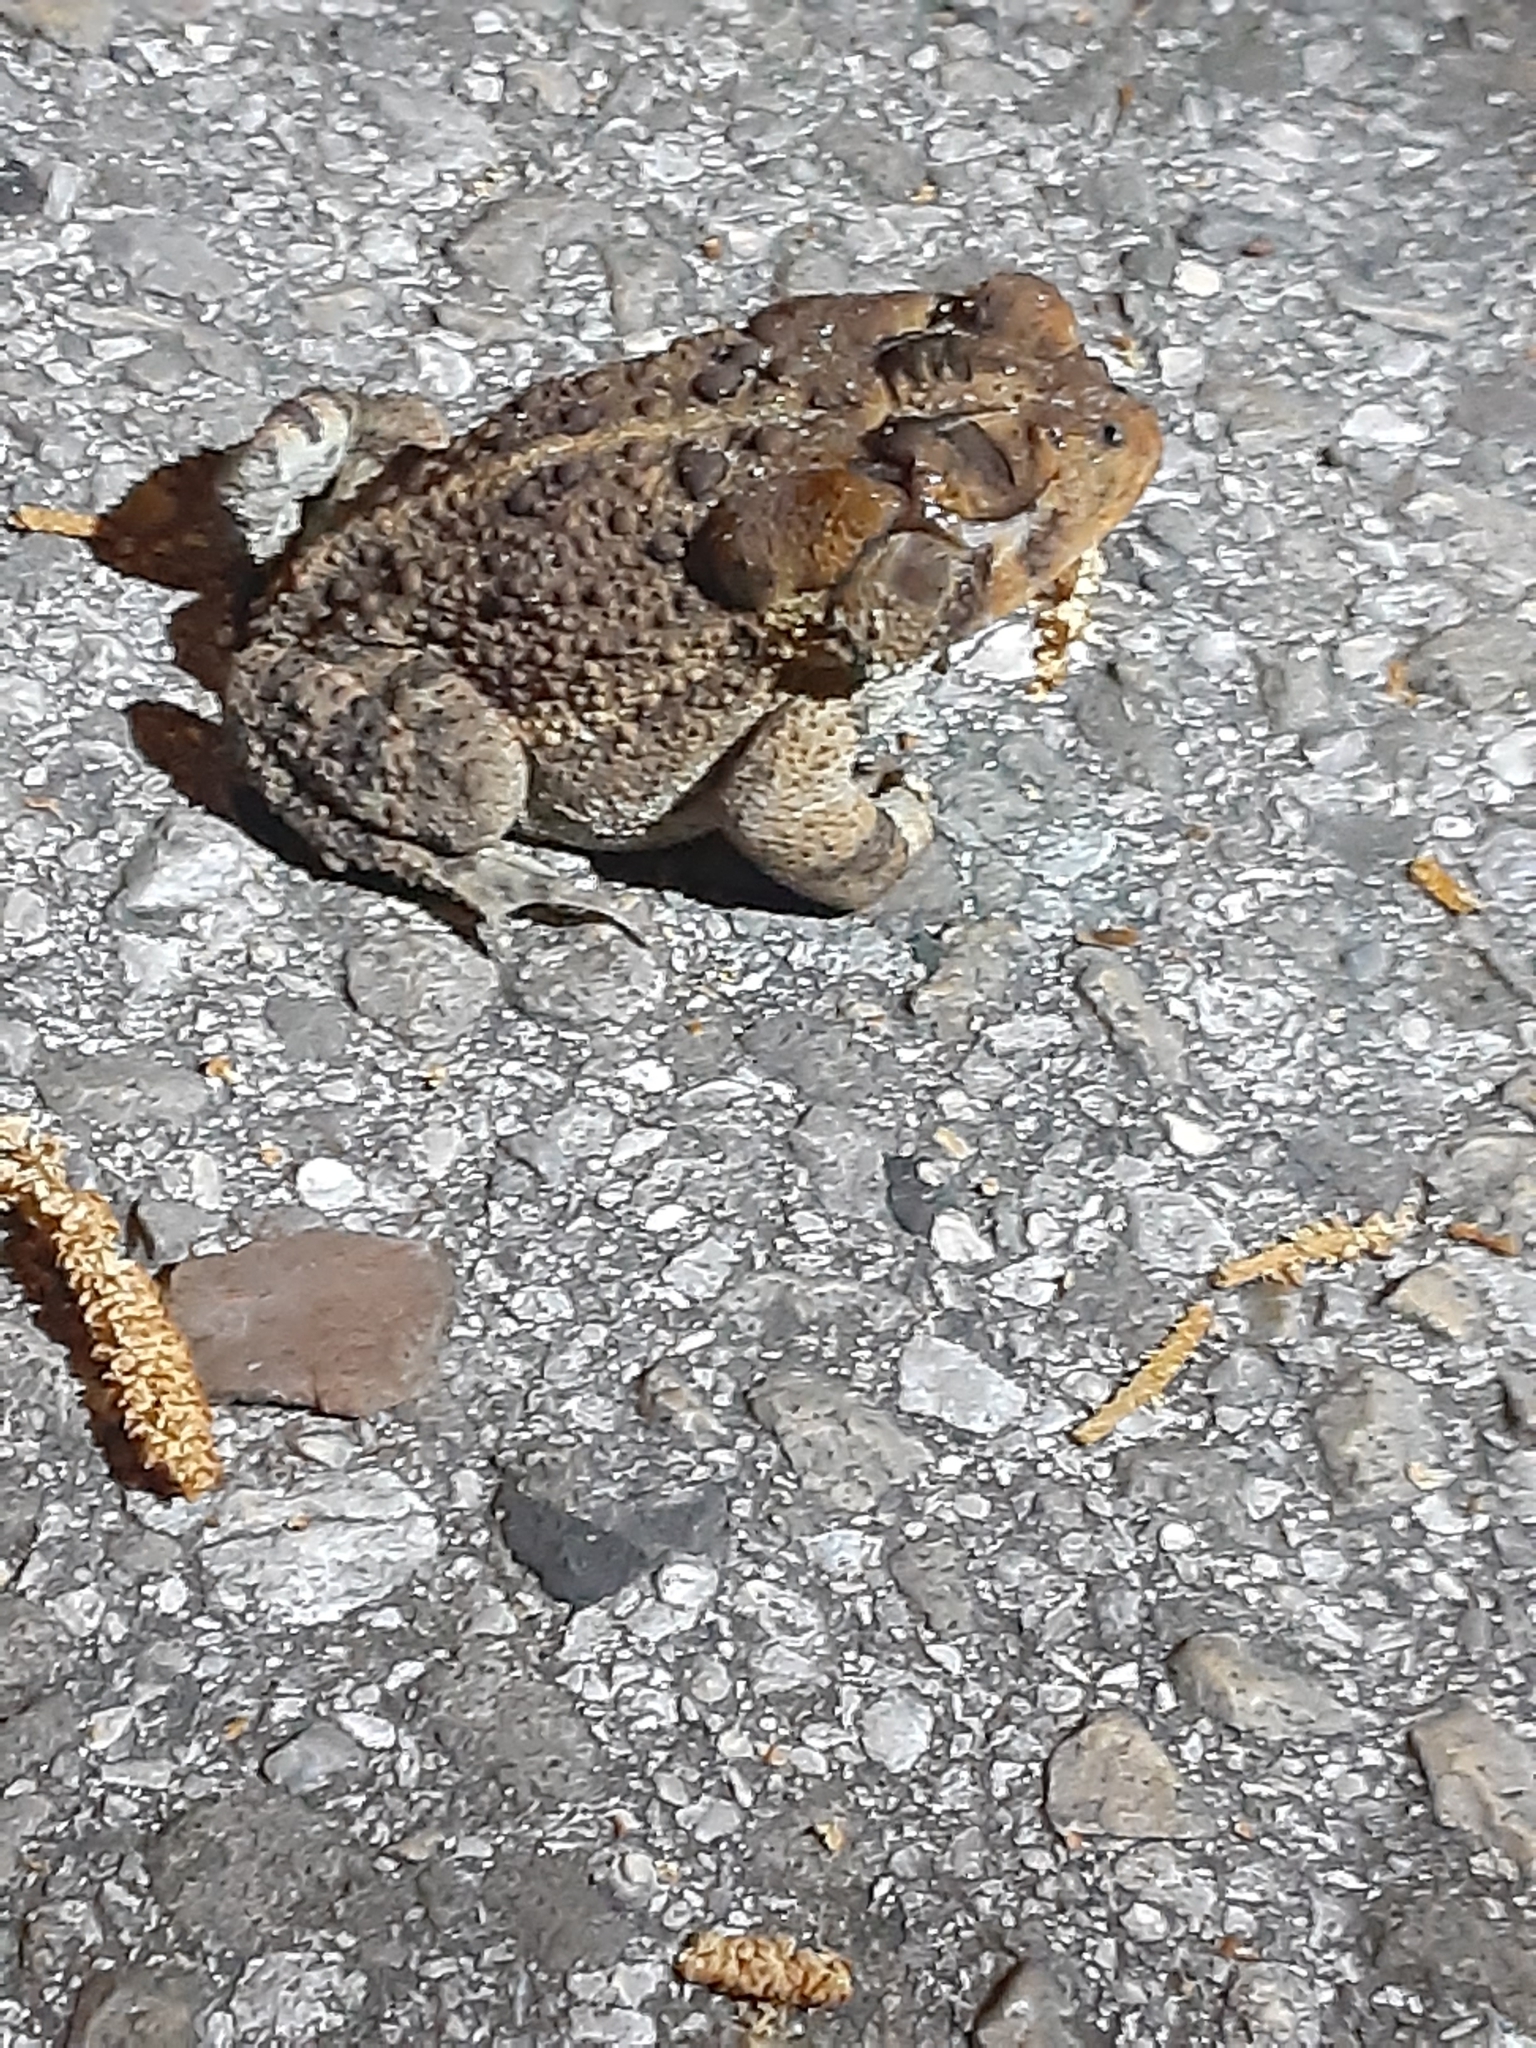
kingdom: Animalia
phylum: Chordata
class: Amphibia
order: Anura
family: Bufonidae
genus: Anaxyrus
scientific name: Anaxyrus terrestris
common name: Southern toad
